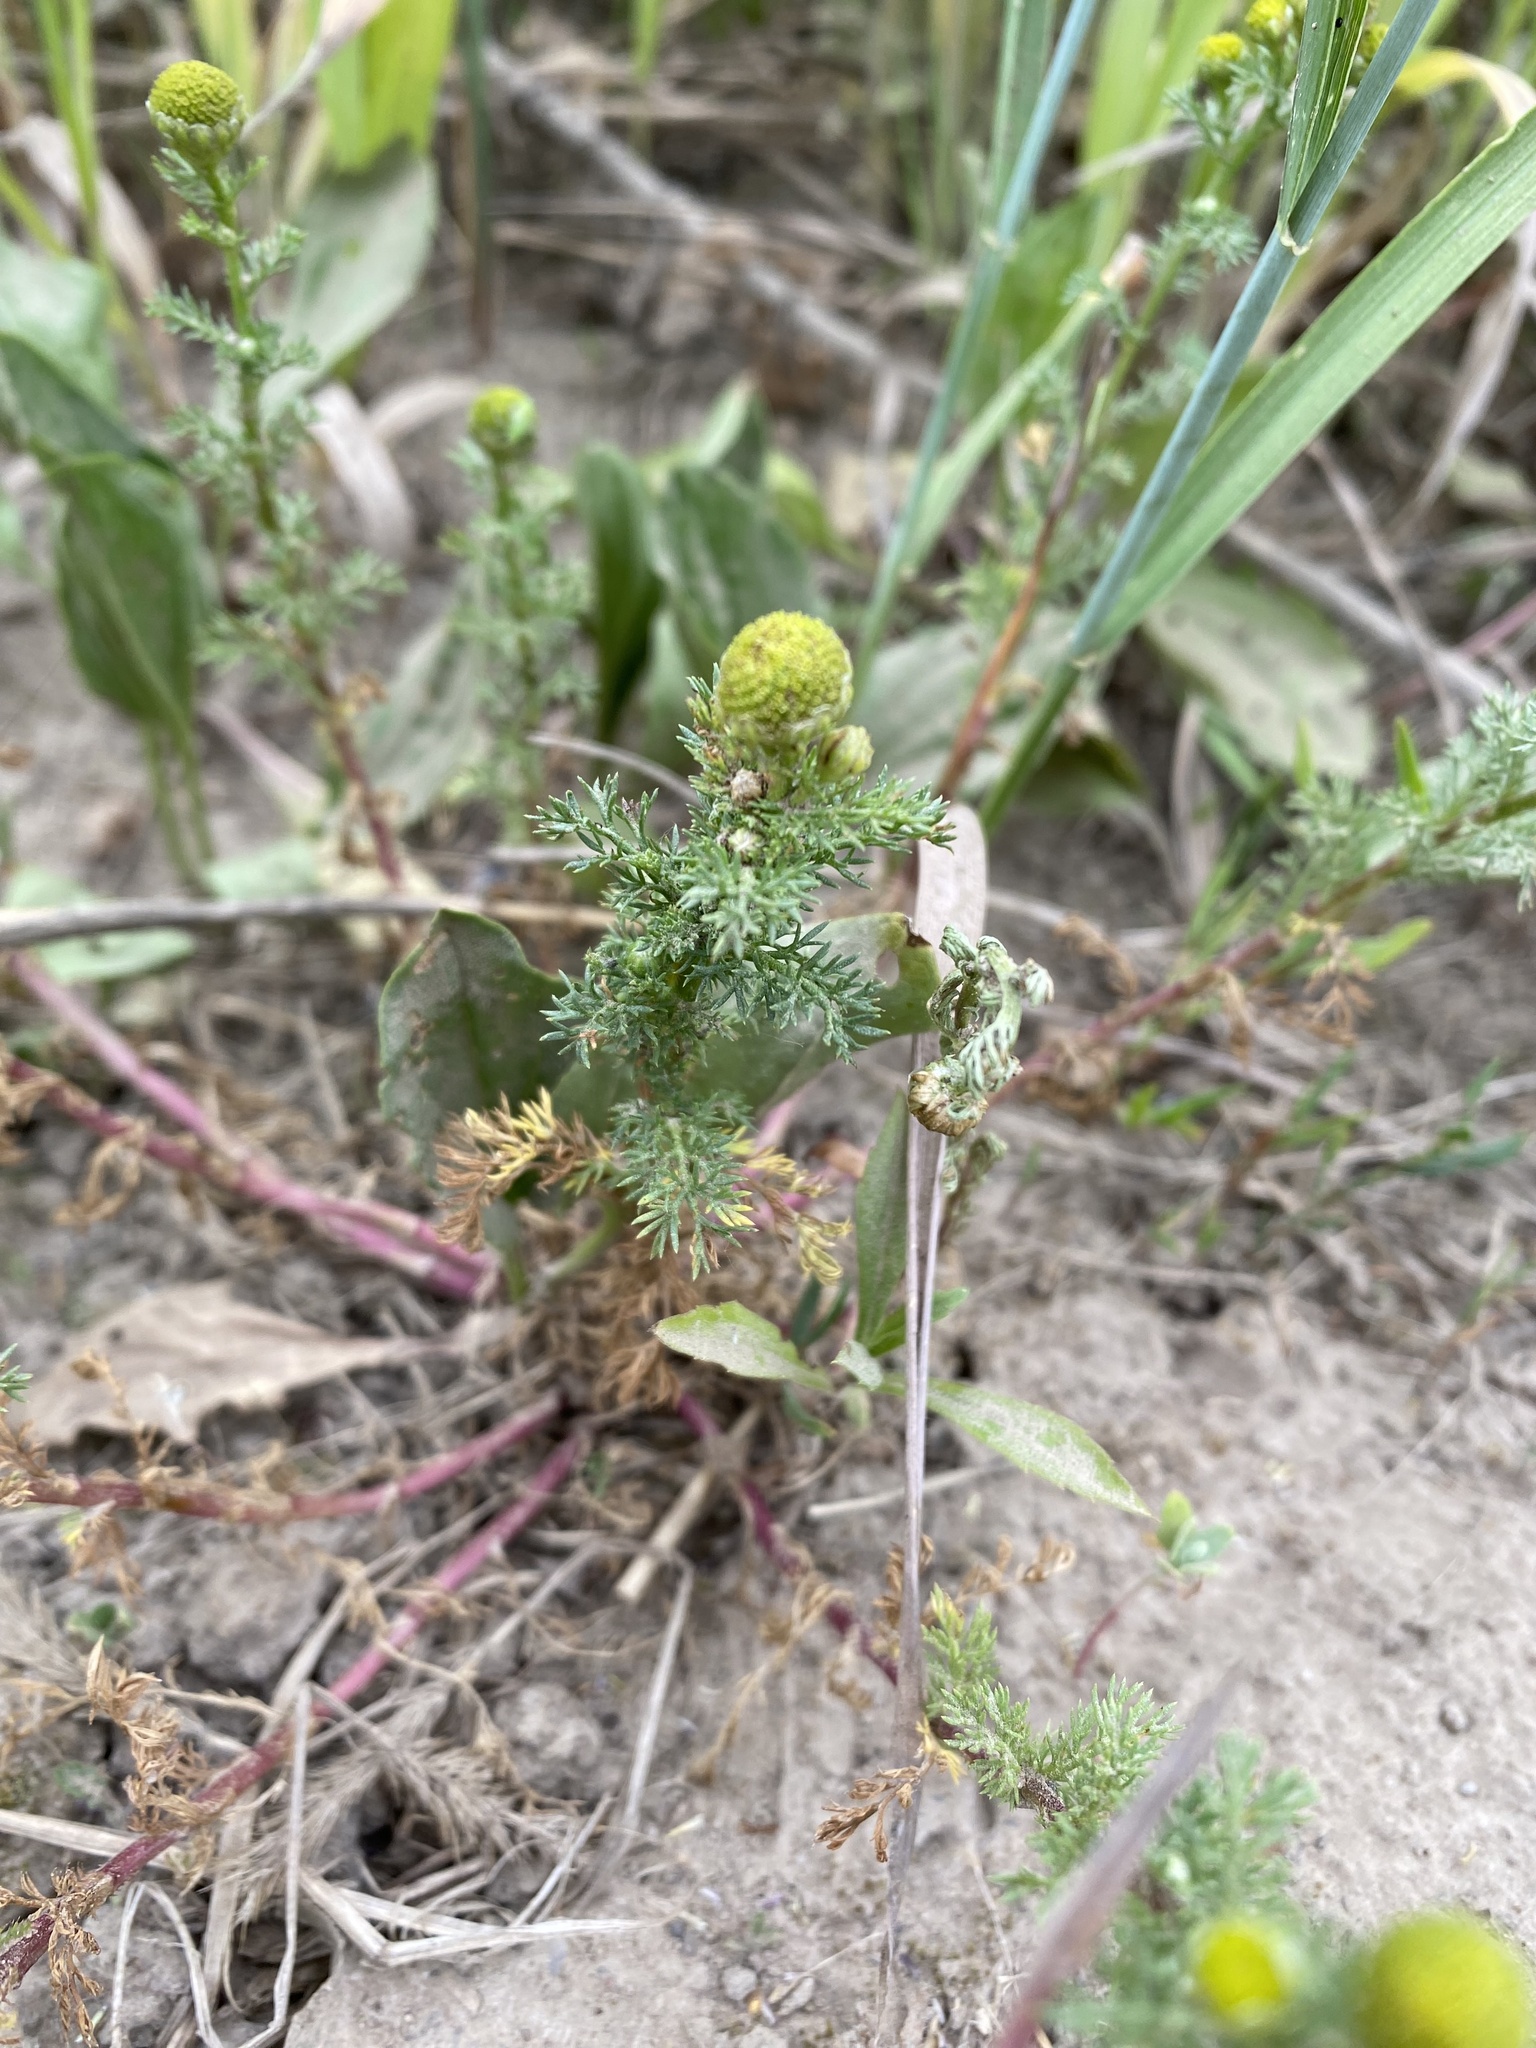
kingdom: Plantae
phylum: Tracheophyta
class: Magnoliopsida
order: Asterales
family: Asteraceae
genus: Matricaria
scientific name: Matricaria discoidea
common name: Disc mayweed
